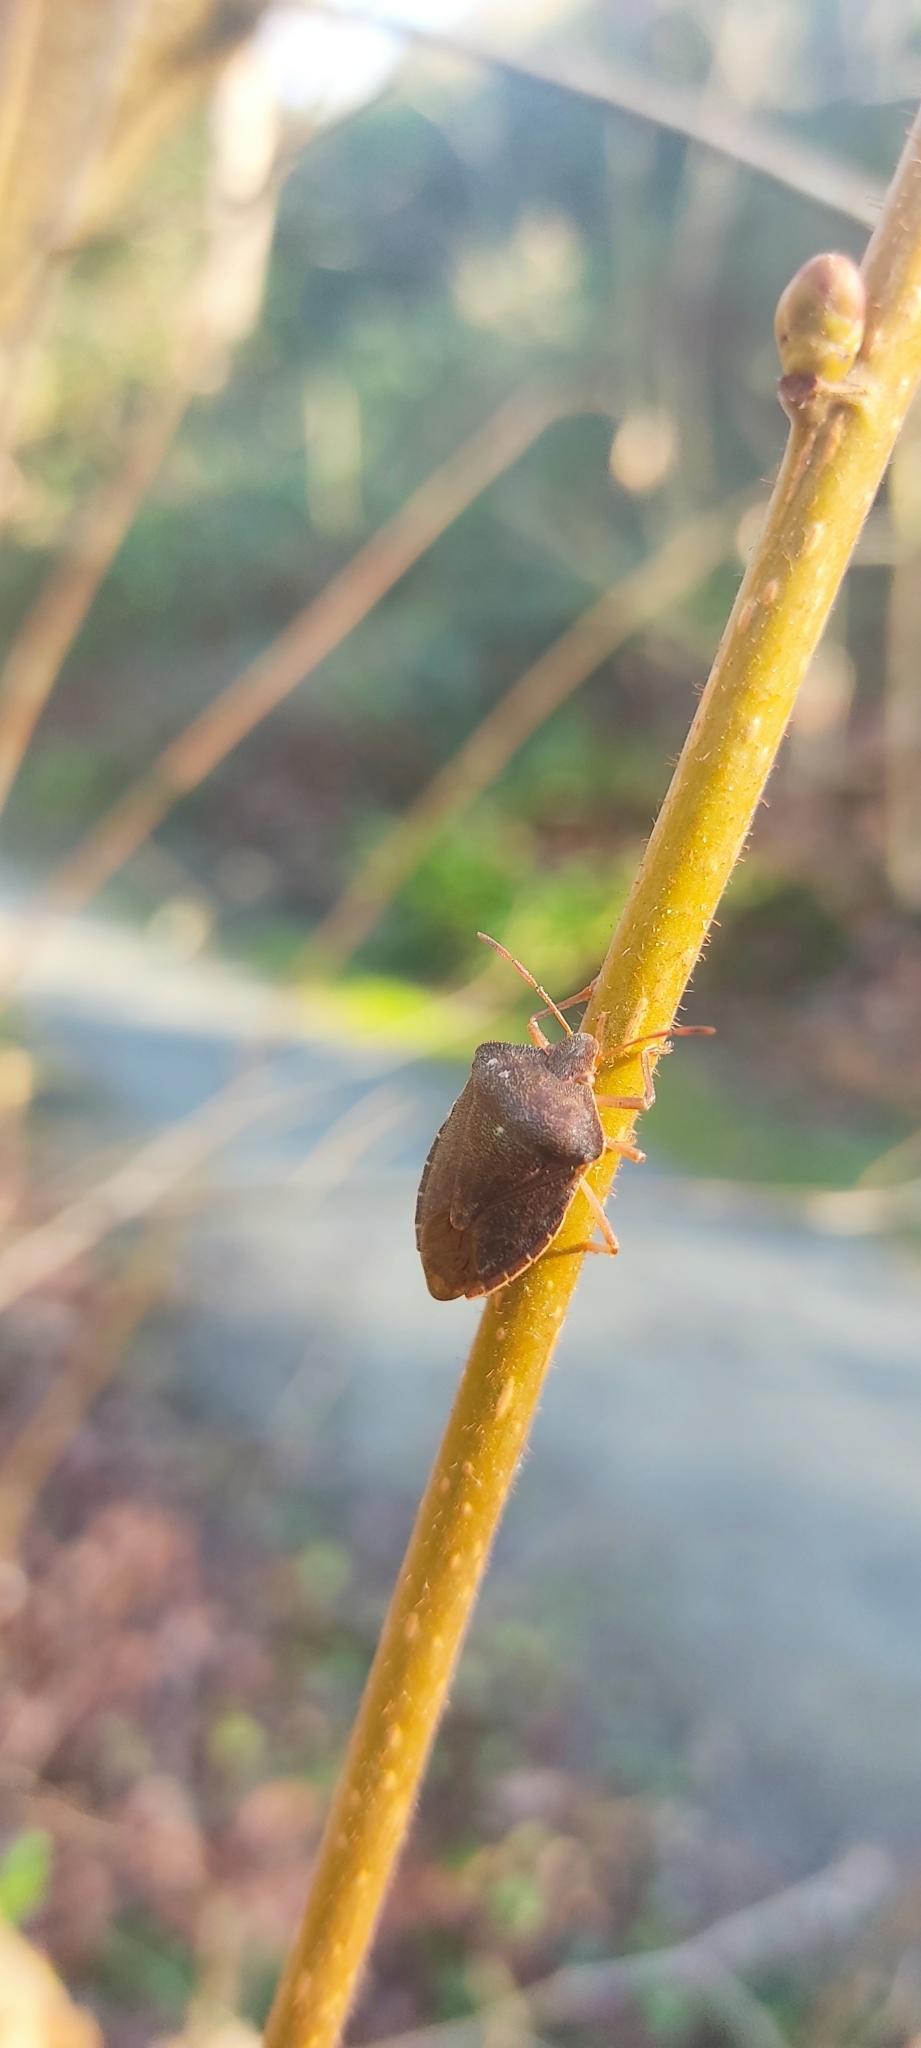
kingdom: Animalia
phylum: Arthropoda
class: Insecta
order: Hemiptera
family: Pentatomidae
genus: Palomena
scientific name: Palomena prasina
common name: Green shieldbug
